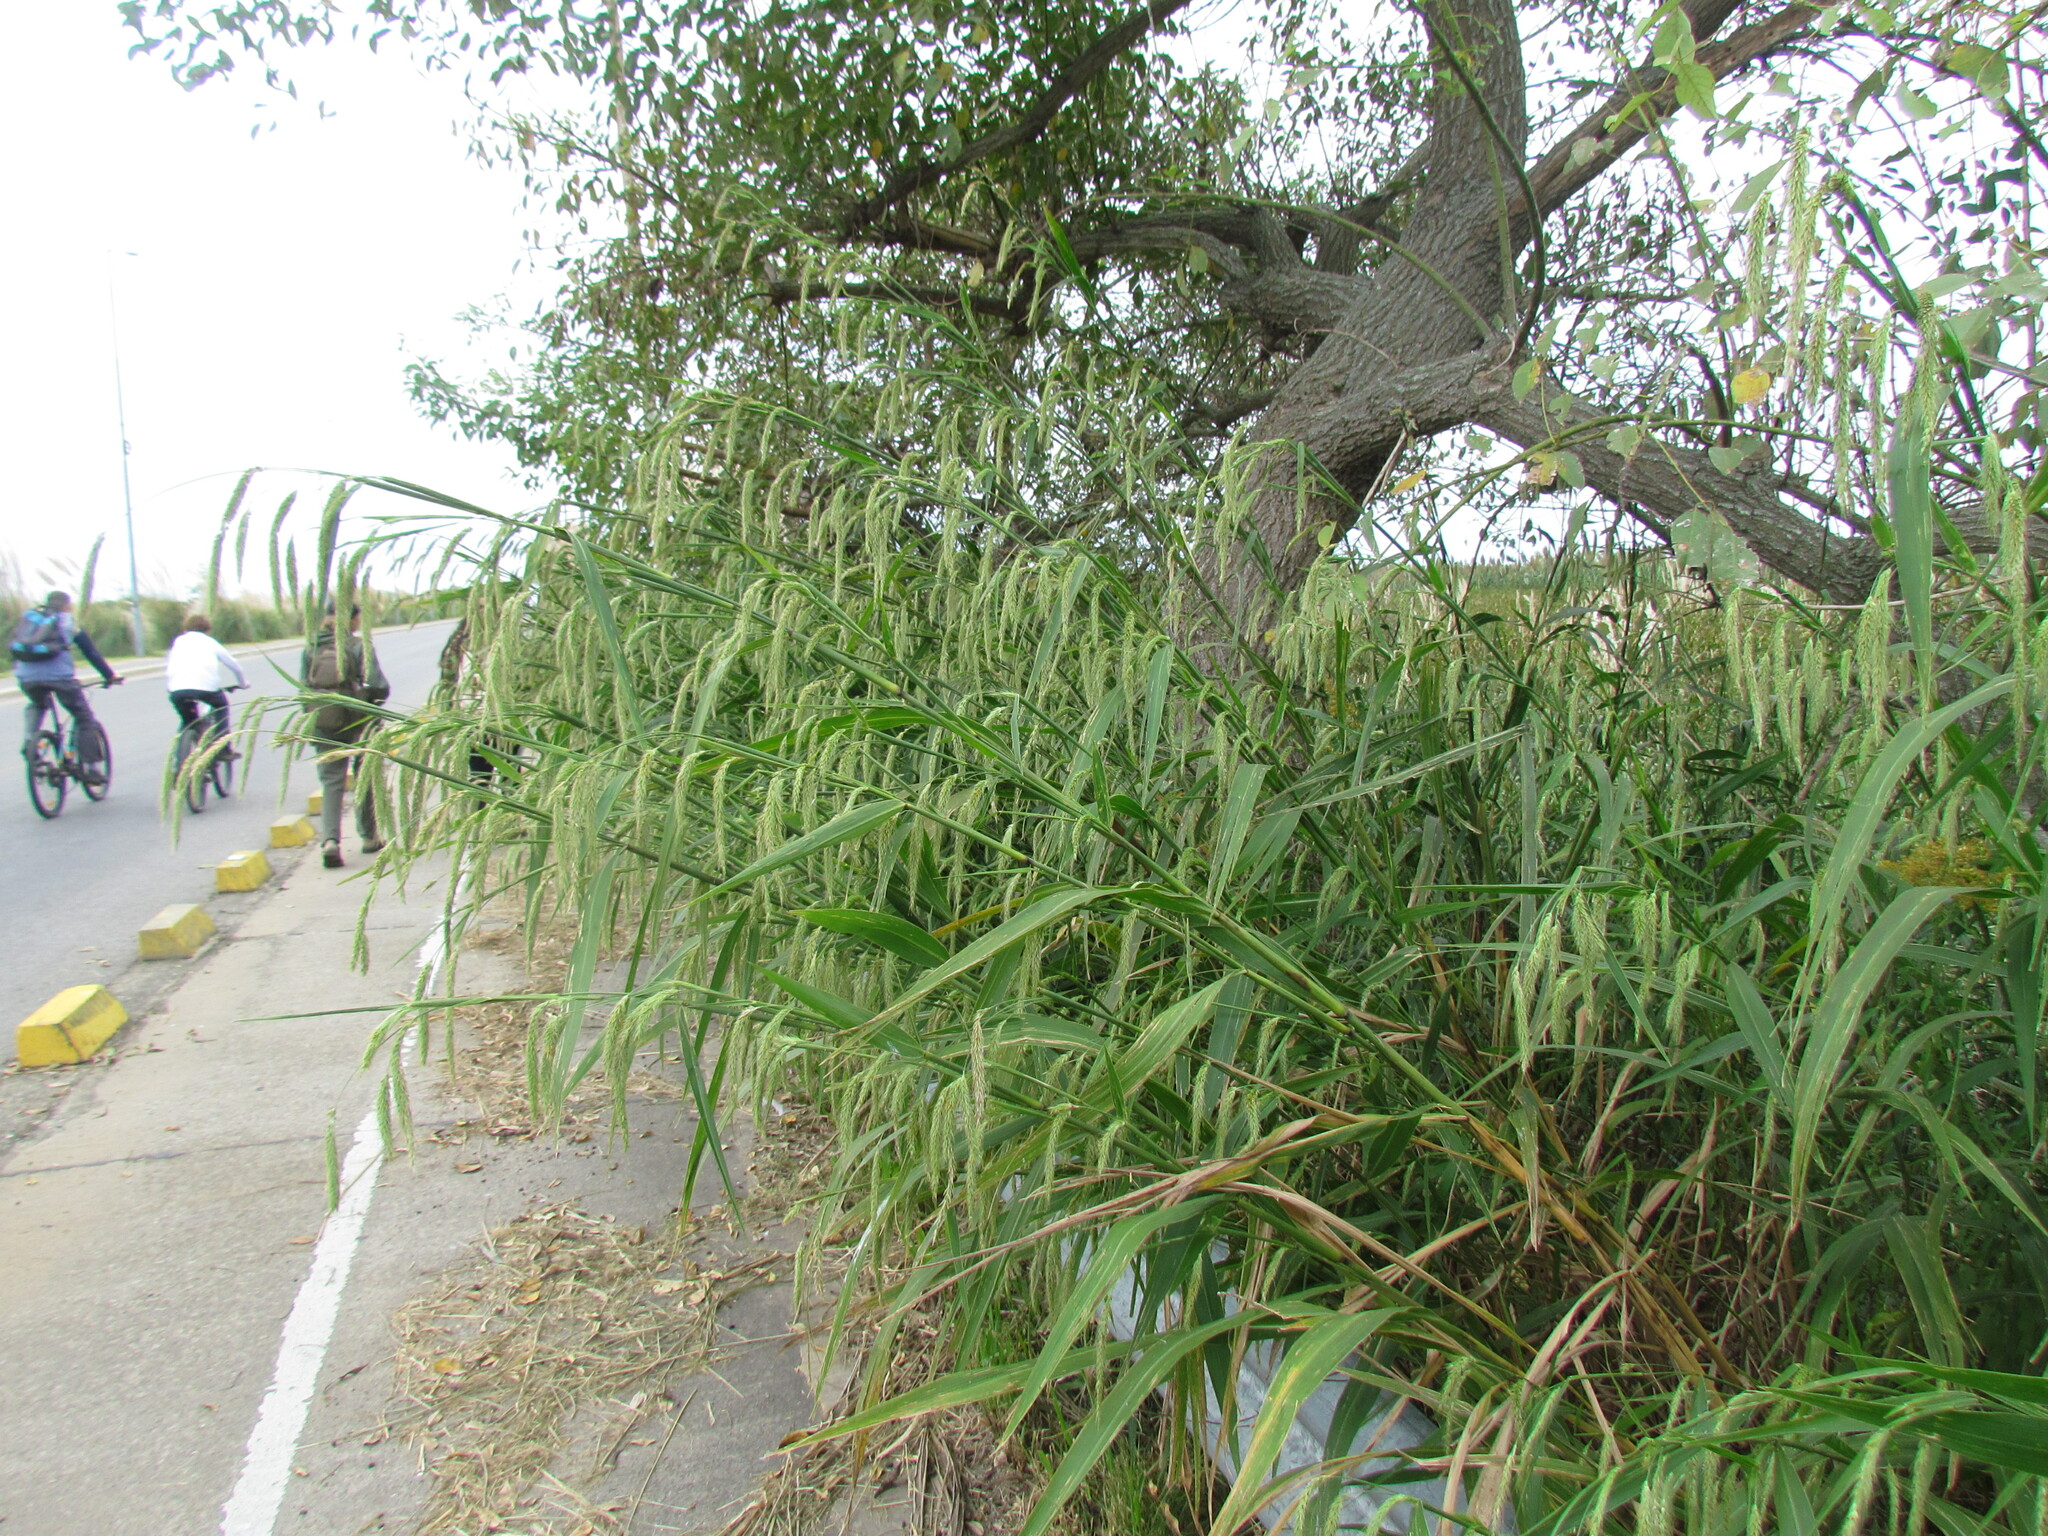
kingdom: Plantae
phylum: Tracheophyta
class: Liliopsida
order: Poales
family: Poaceae
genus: Cenchrus
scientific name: Cenchrus latifolius
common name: Sandbur
